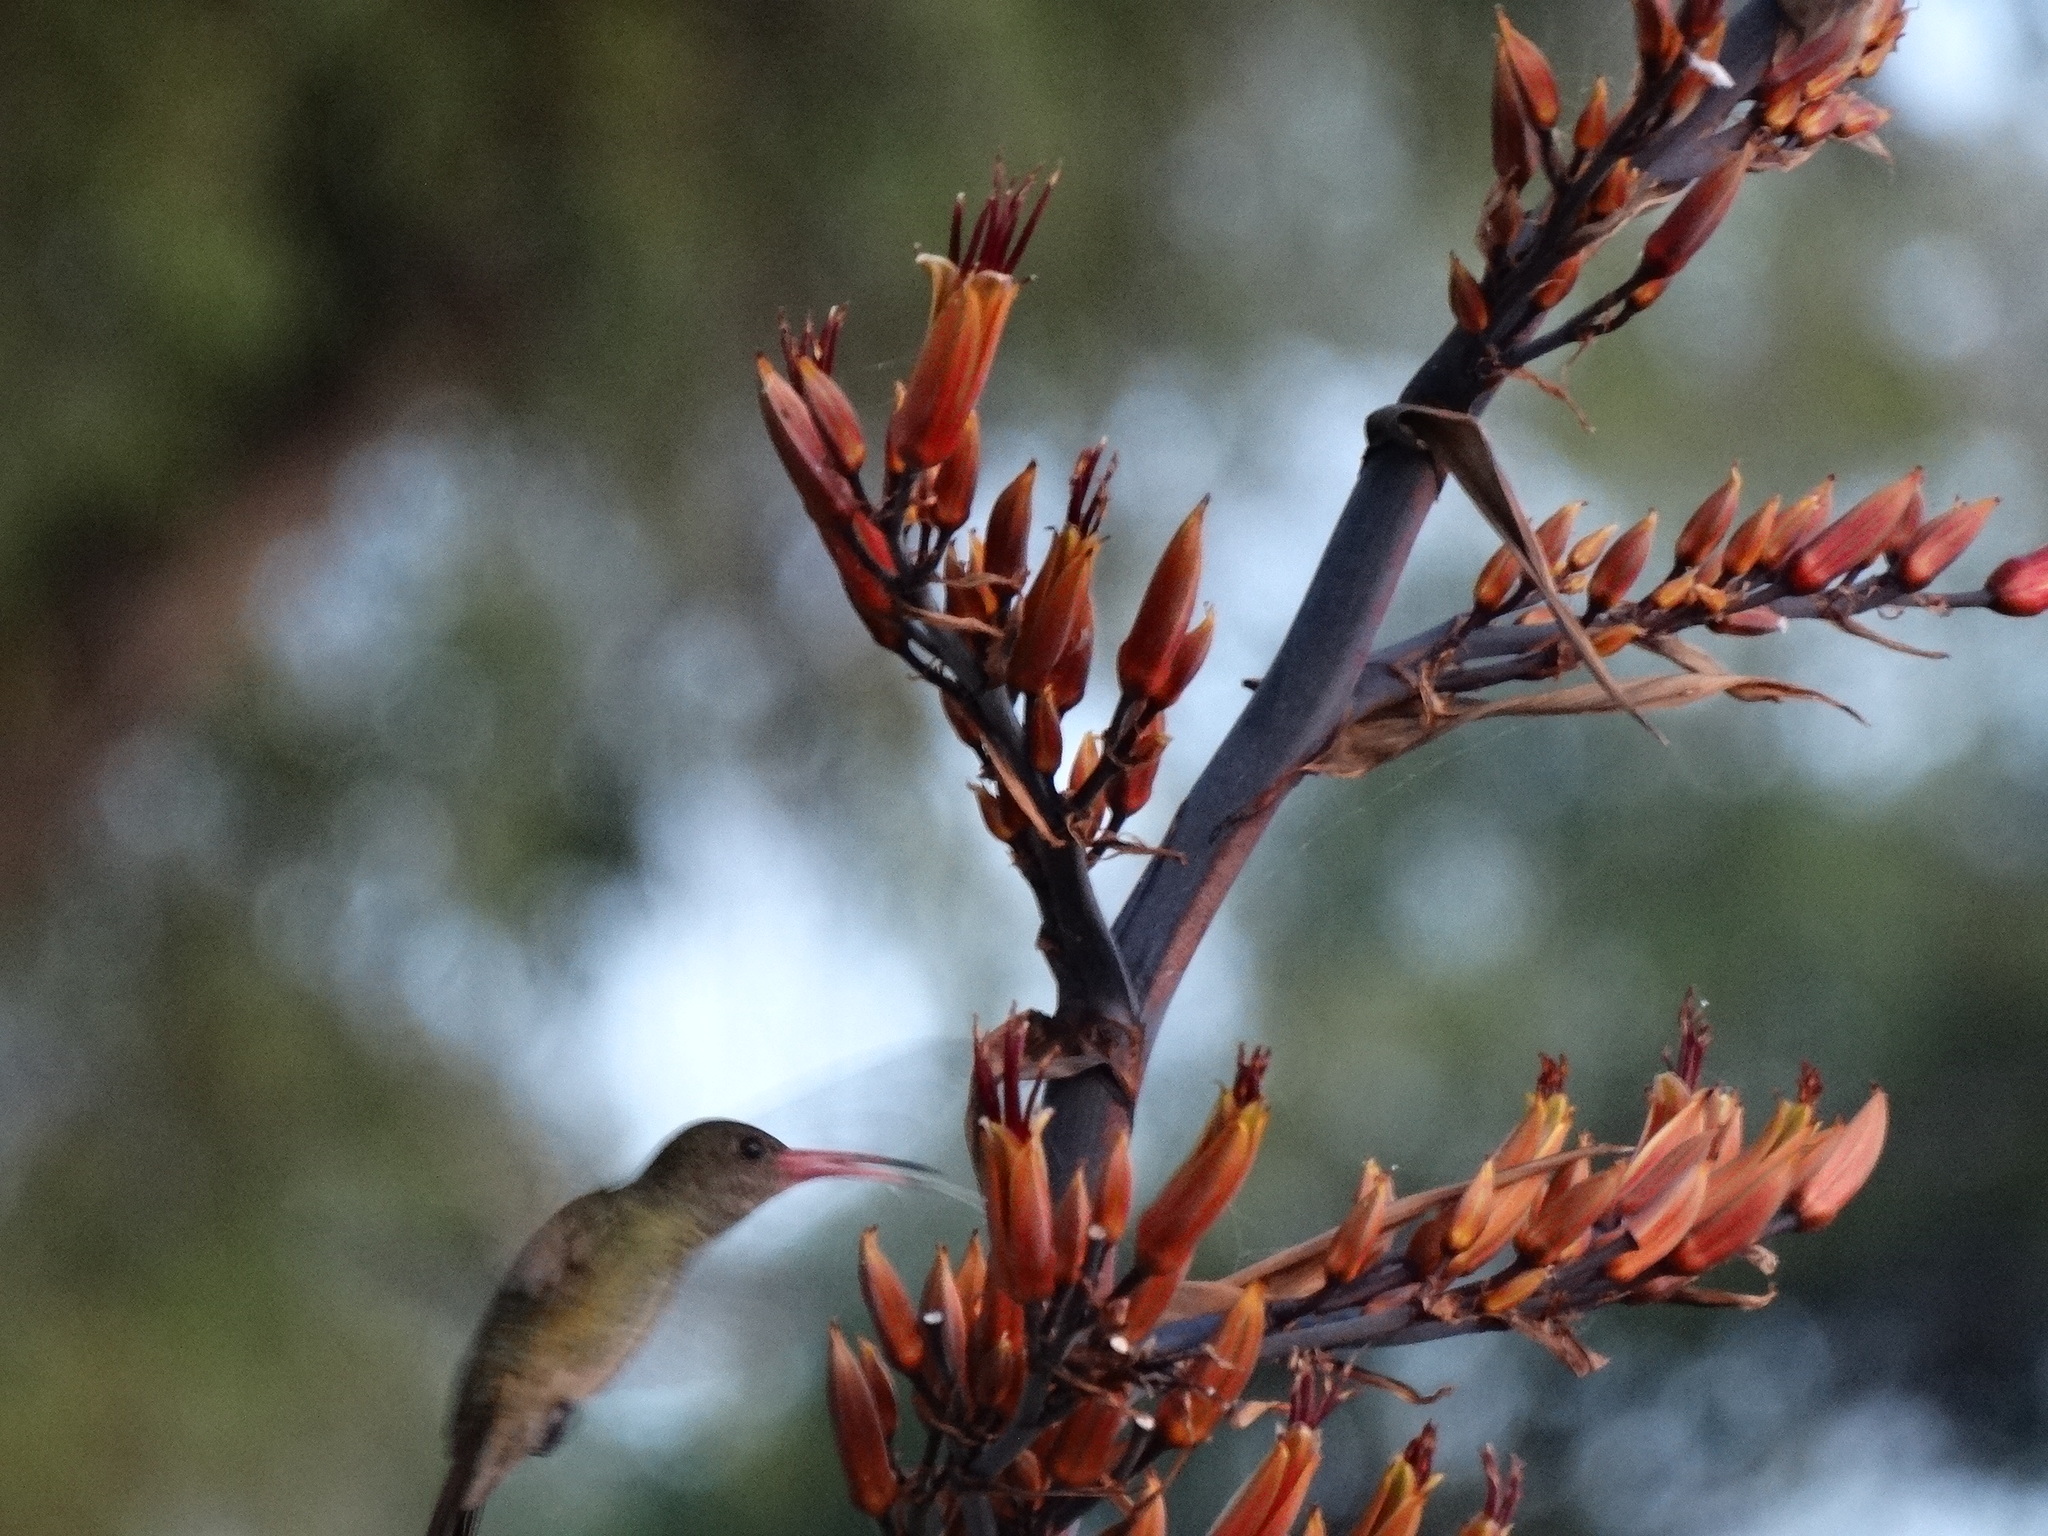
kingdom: Animalia
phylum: Chordata
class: Aves
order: Apodiformes
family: Trochilidae
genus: Hylocharis
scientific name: Hylocharis chrysura
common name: Gilded sapphire
